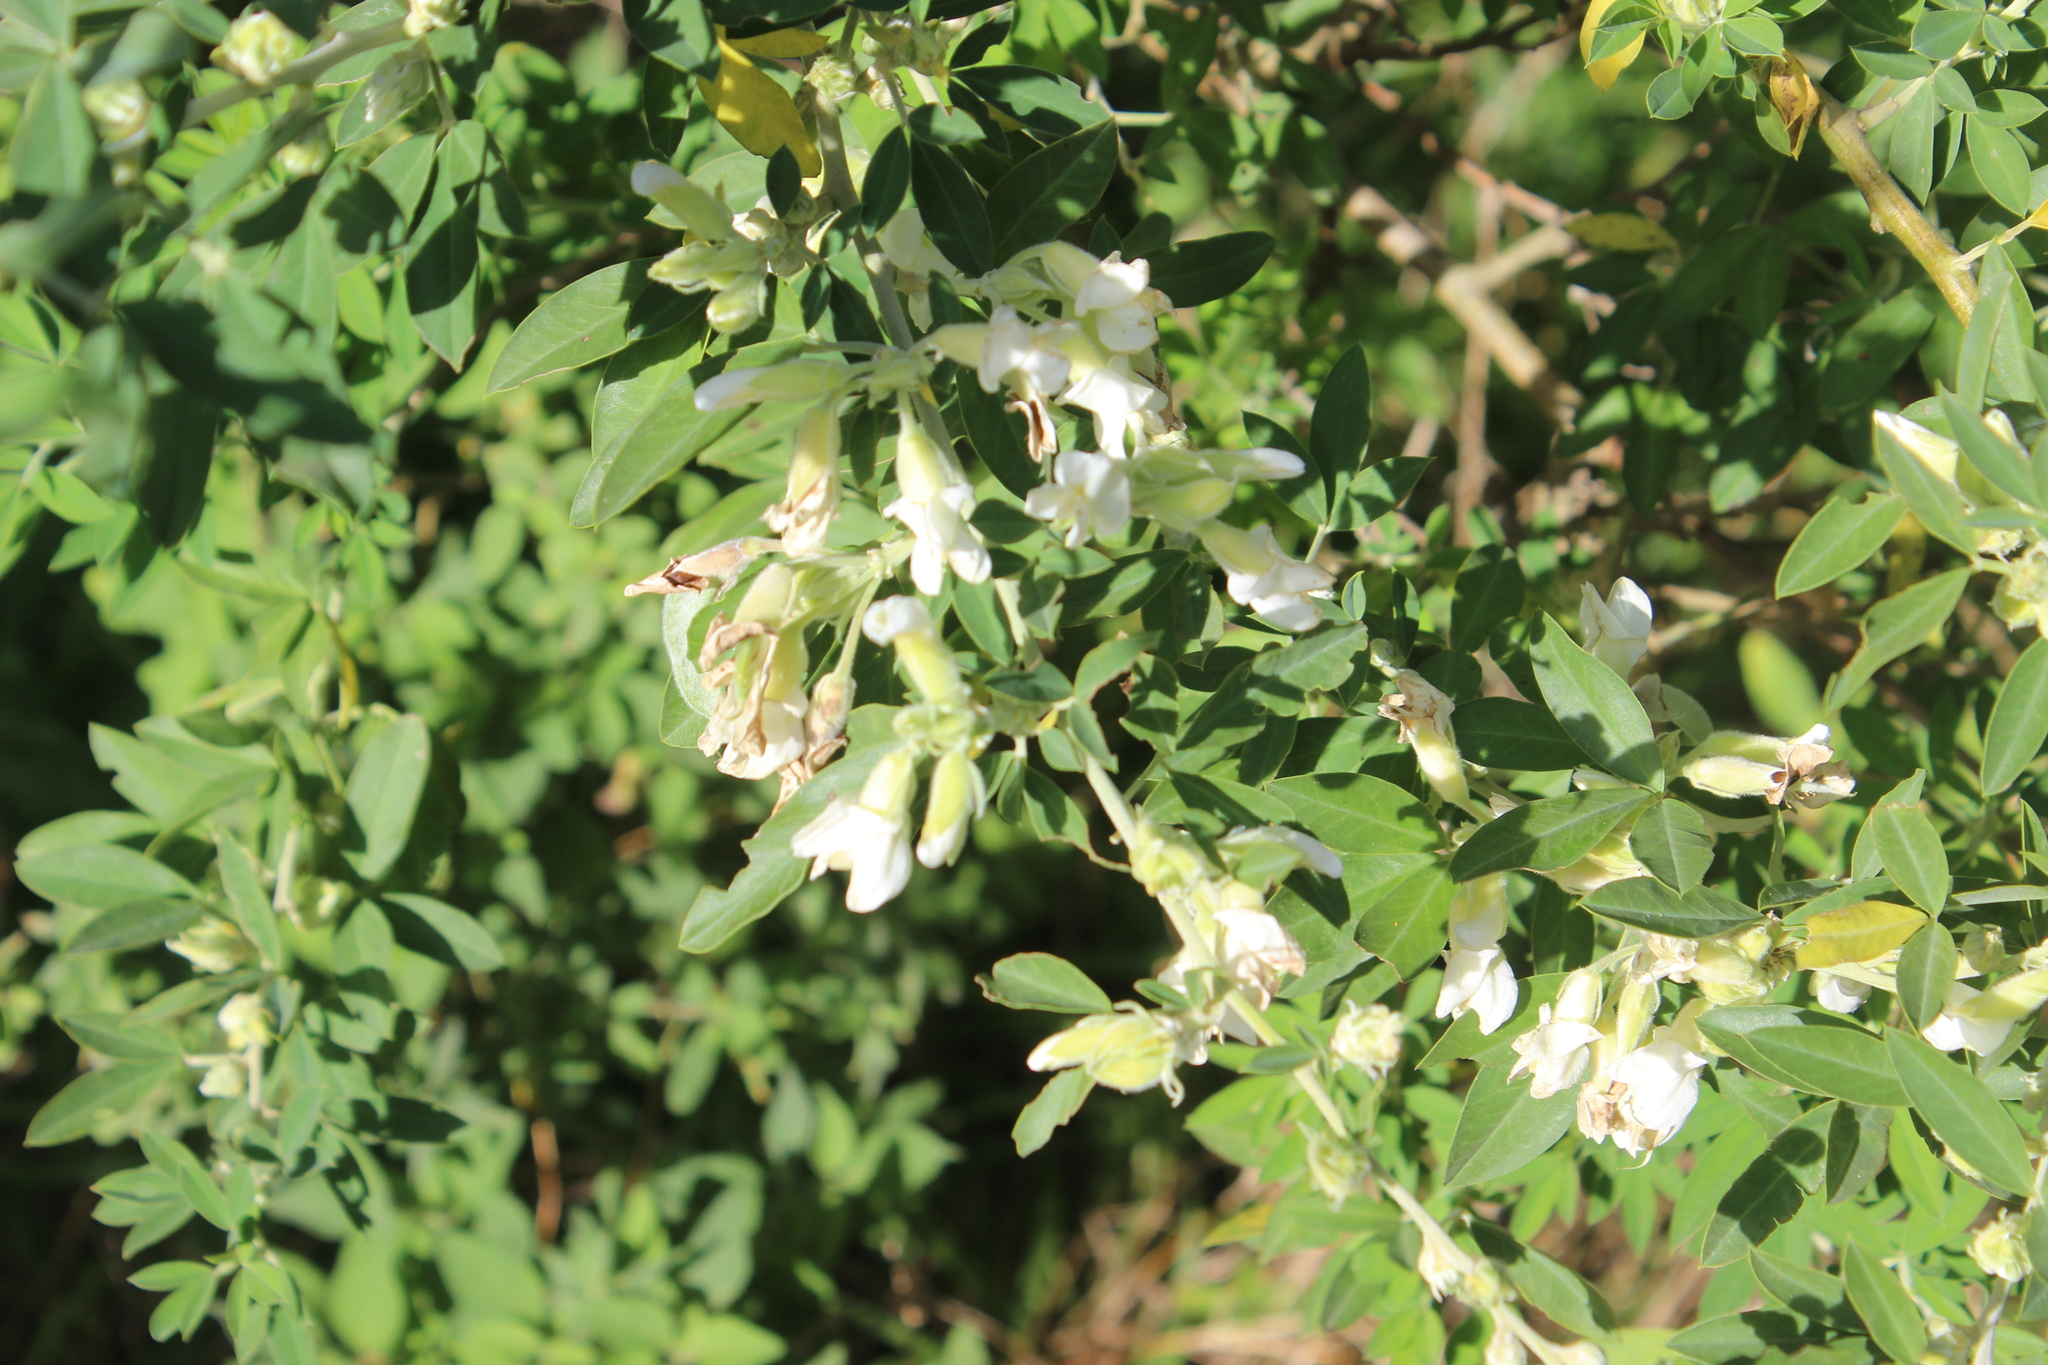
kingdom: Plantae
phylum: Tracheophyta
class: Magnoliopsida
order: Fabales
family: Fabaceae
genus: Chamaecytisus
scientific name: Chamaecytisus prolifer
